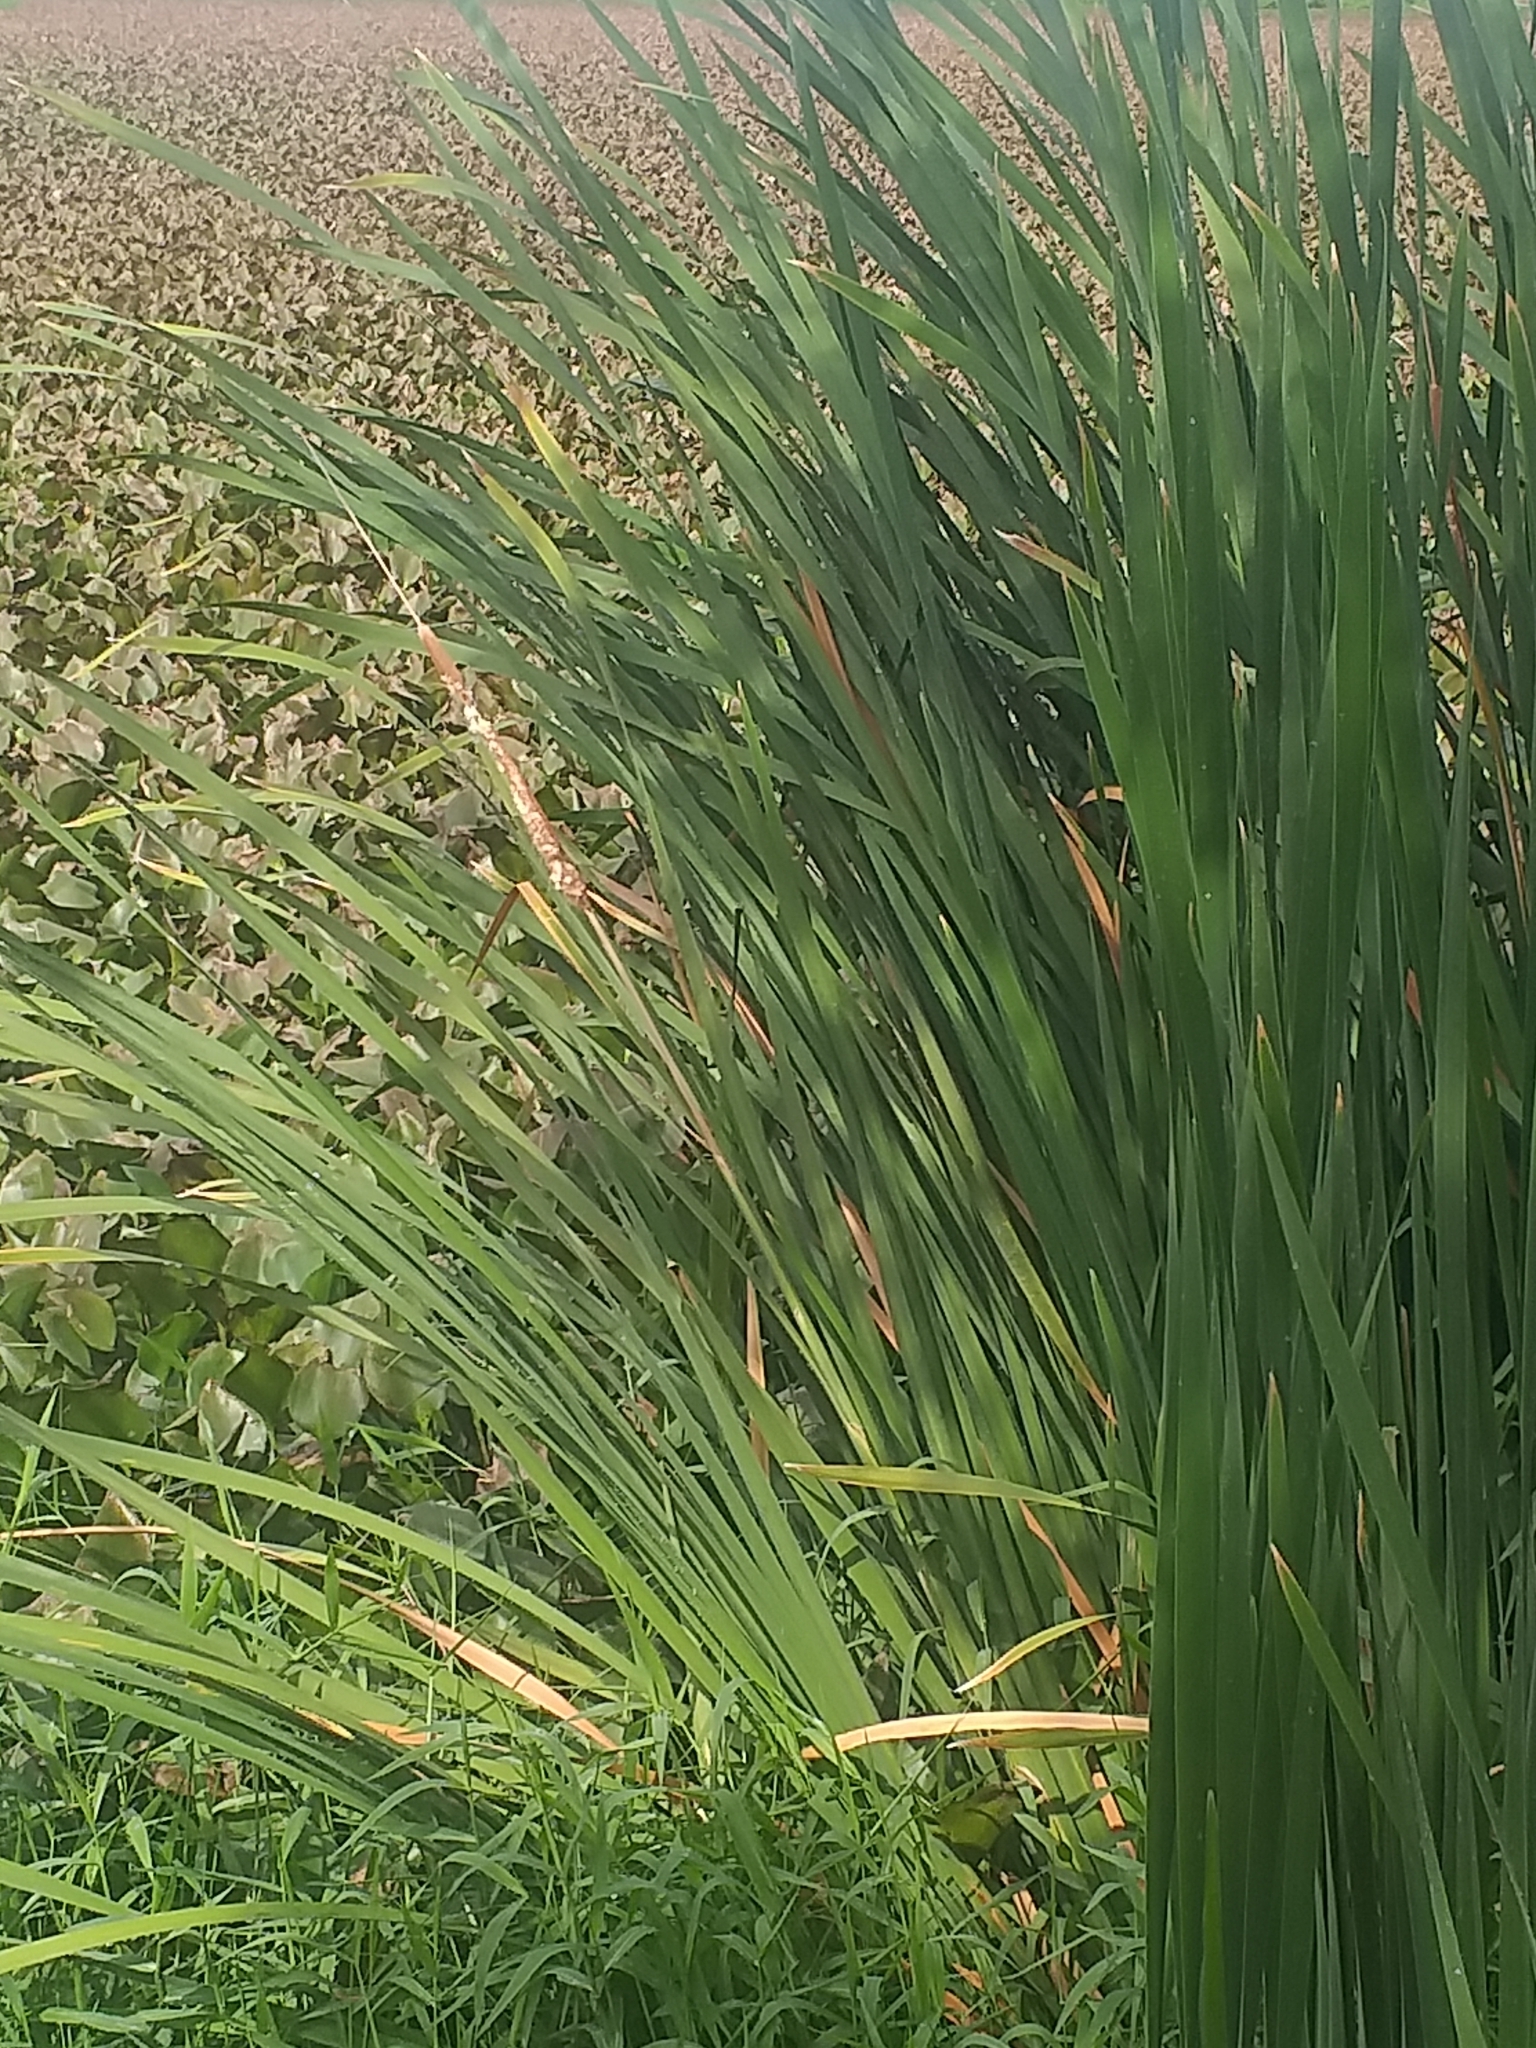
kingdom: Plantae
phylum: Tracheophyta
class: Liliopsida
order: Poales
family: Typhaceae
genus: Typha
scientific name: Typha domingensis
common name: Southern cattail
